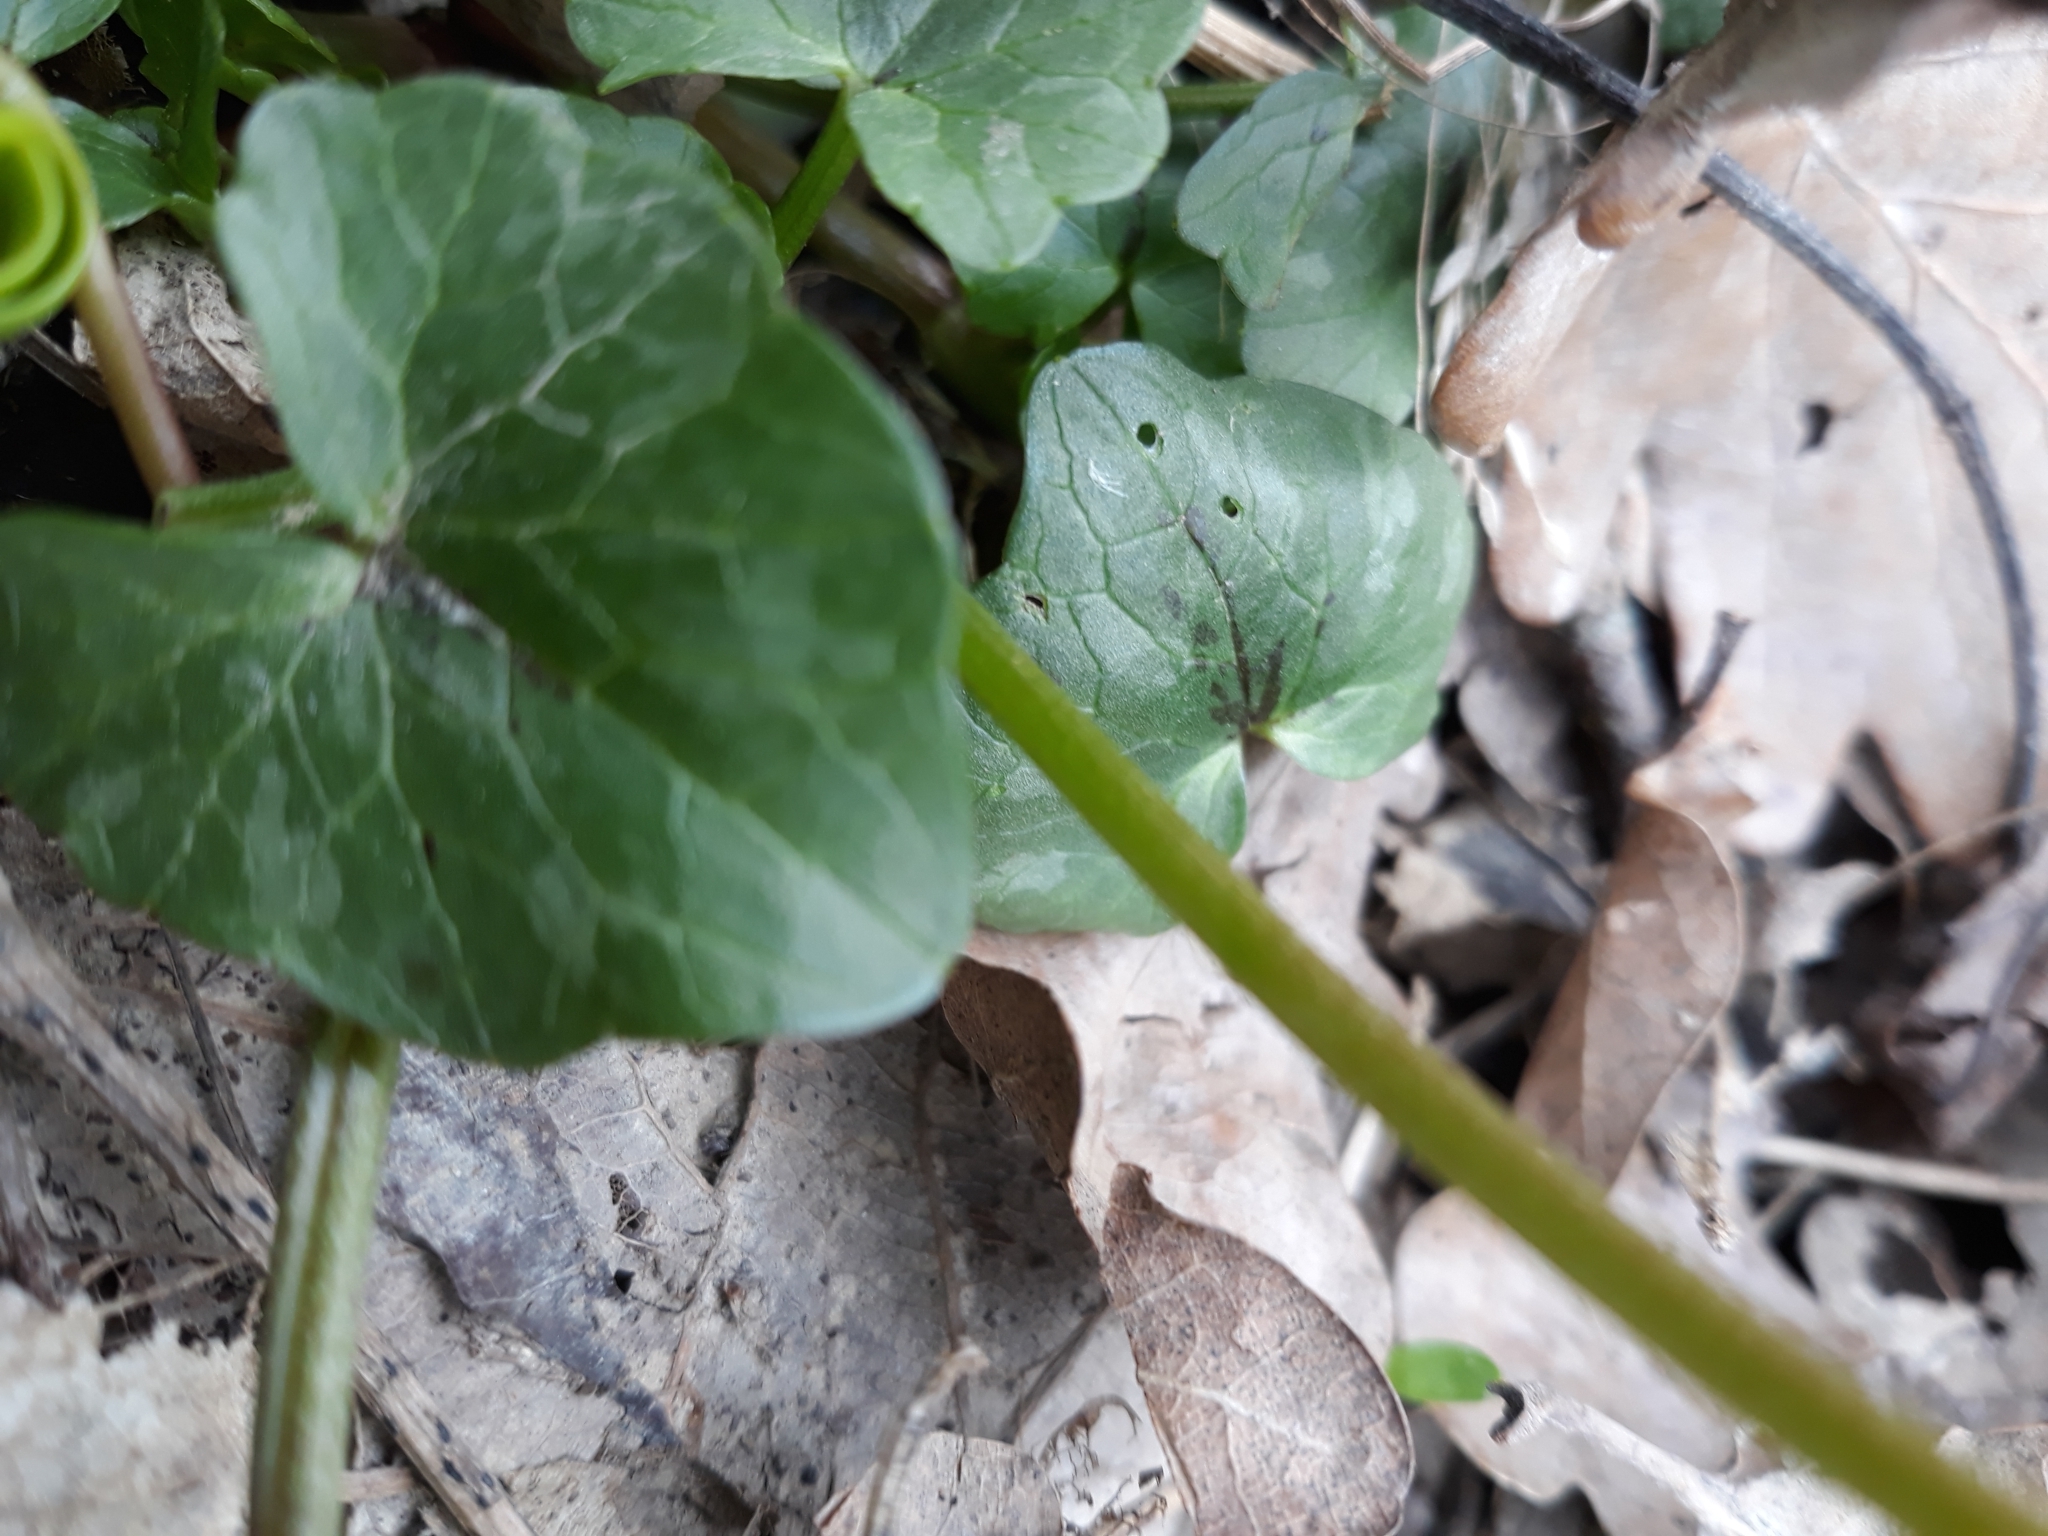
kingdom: Plantae
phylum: Tracheophyta
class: Magnoliopsida
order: Ranunculales
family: Ranunculaceae
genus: Ficaria
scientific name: Ficaria verna
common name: Lesser celandine
